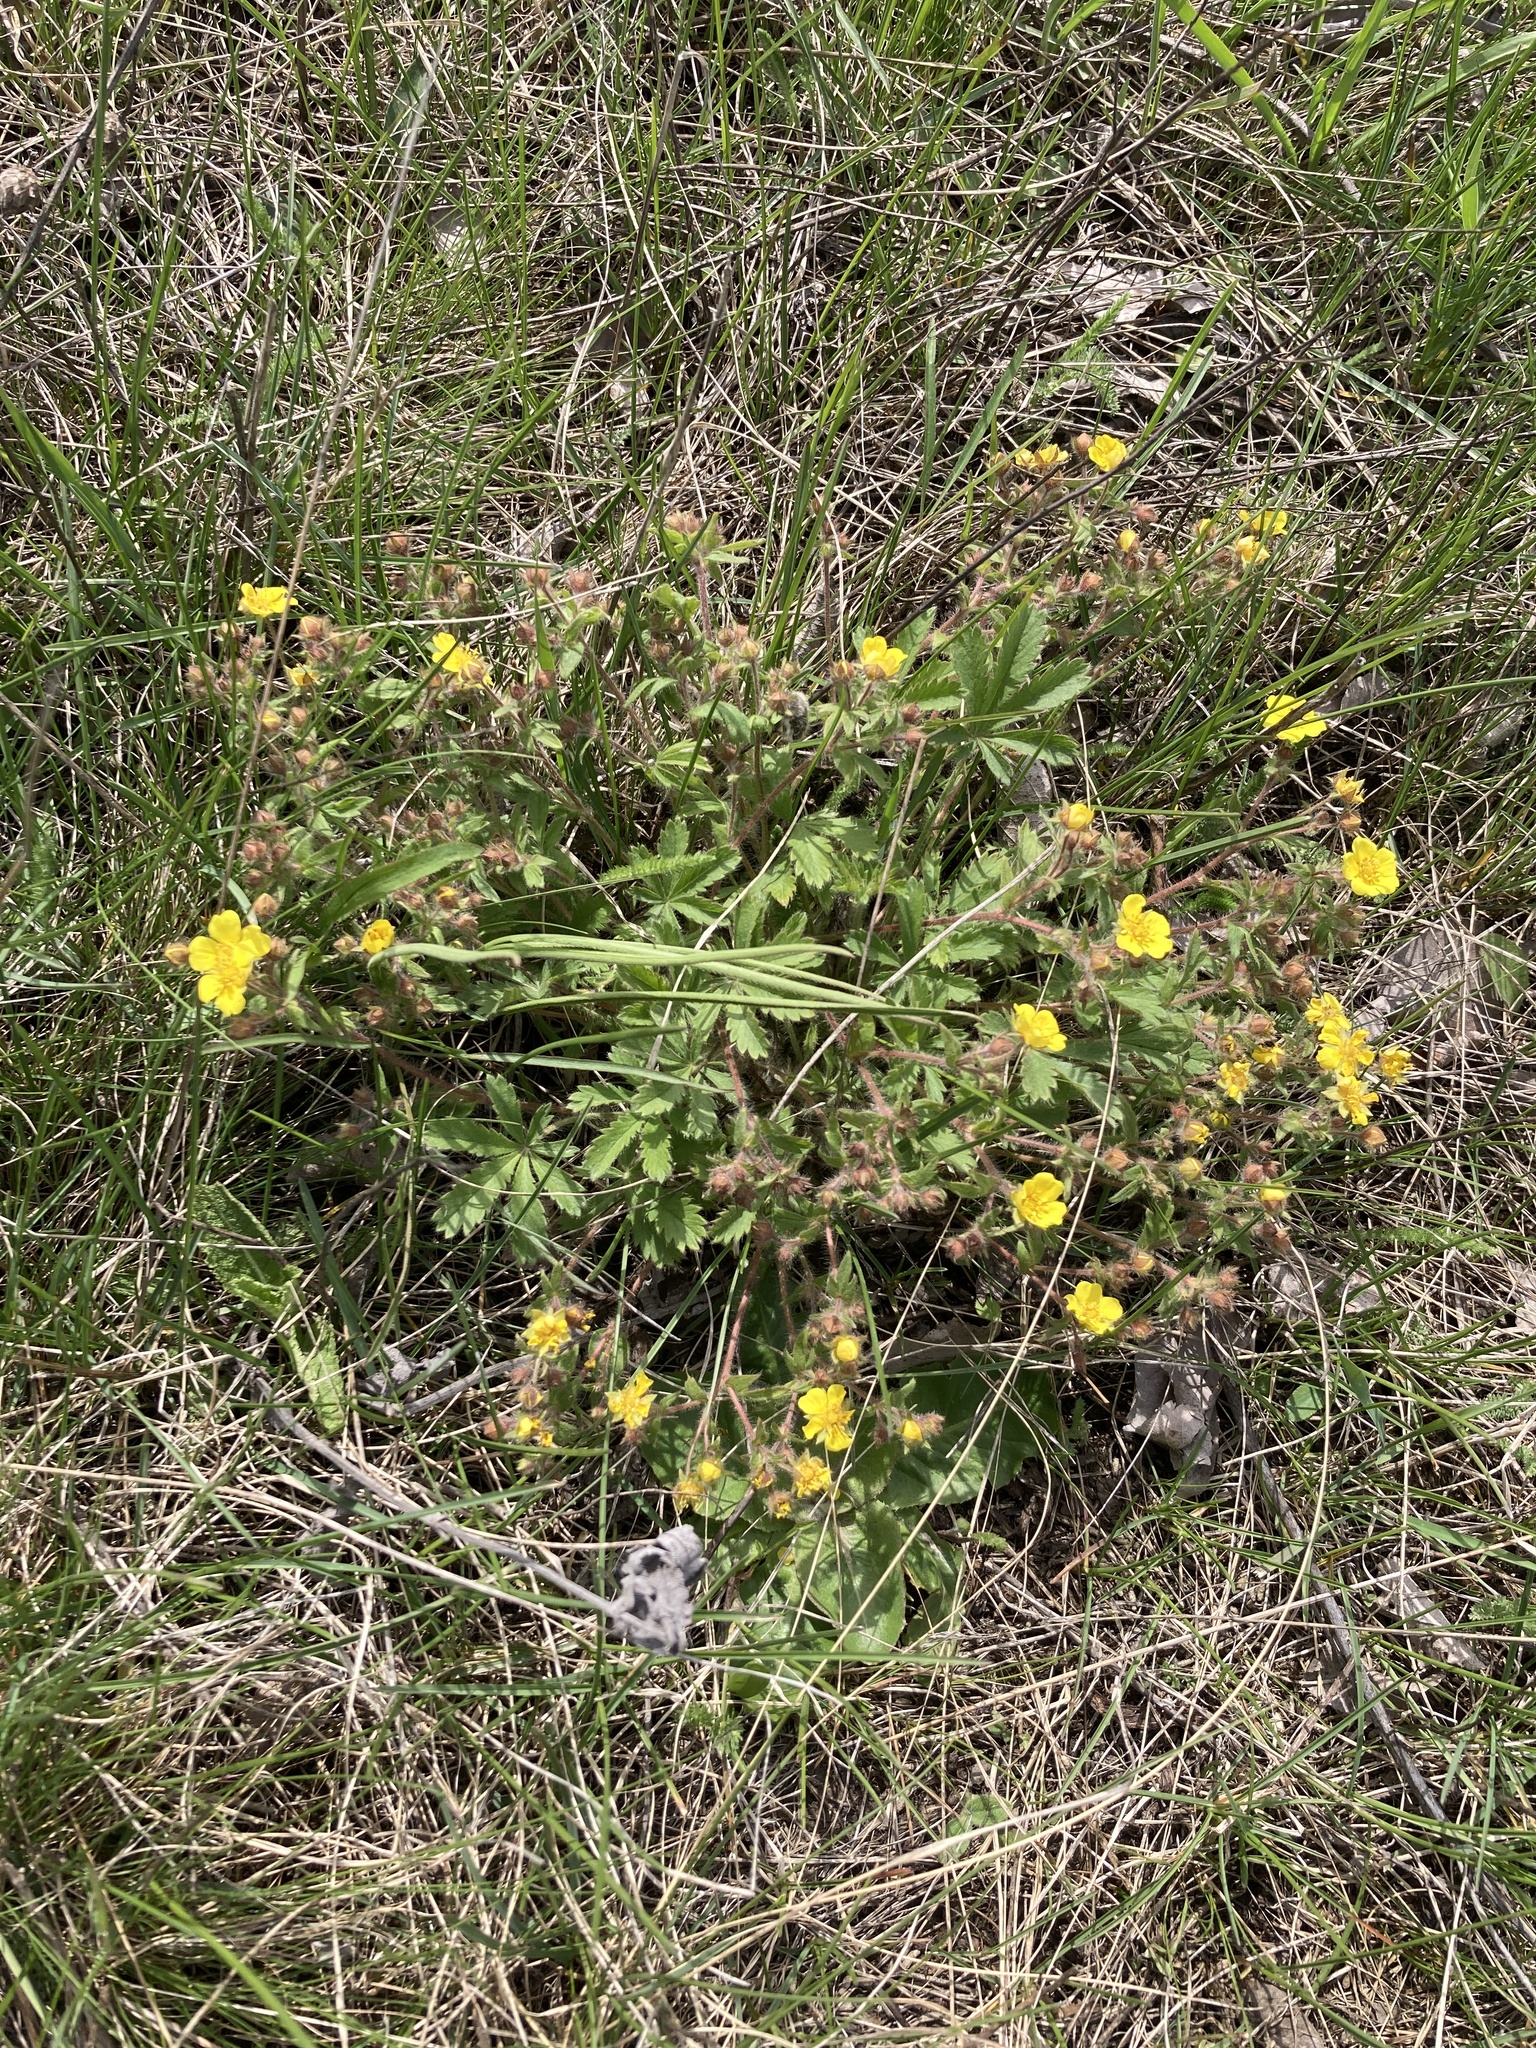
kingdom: Plantae
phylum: Tracheophyta
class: Magnoliopsida
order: Rosales
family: Rosaceae
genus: Potentilla
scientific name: Potentilla humifusa
